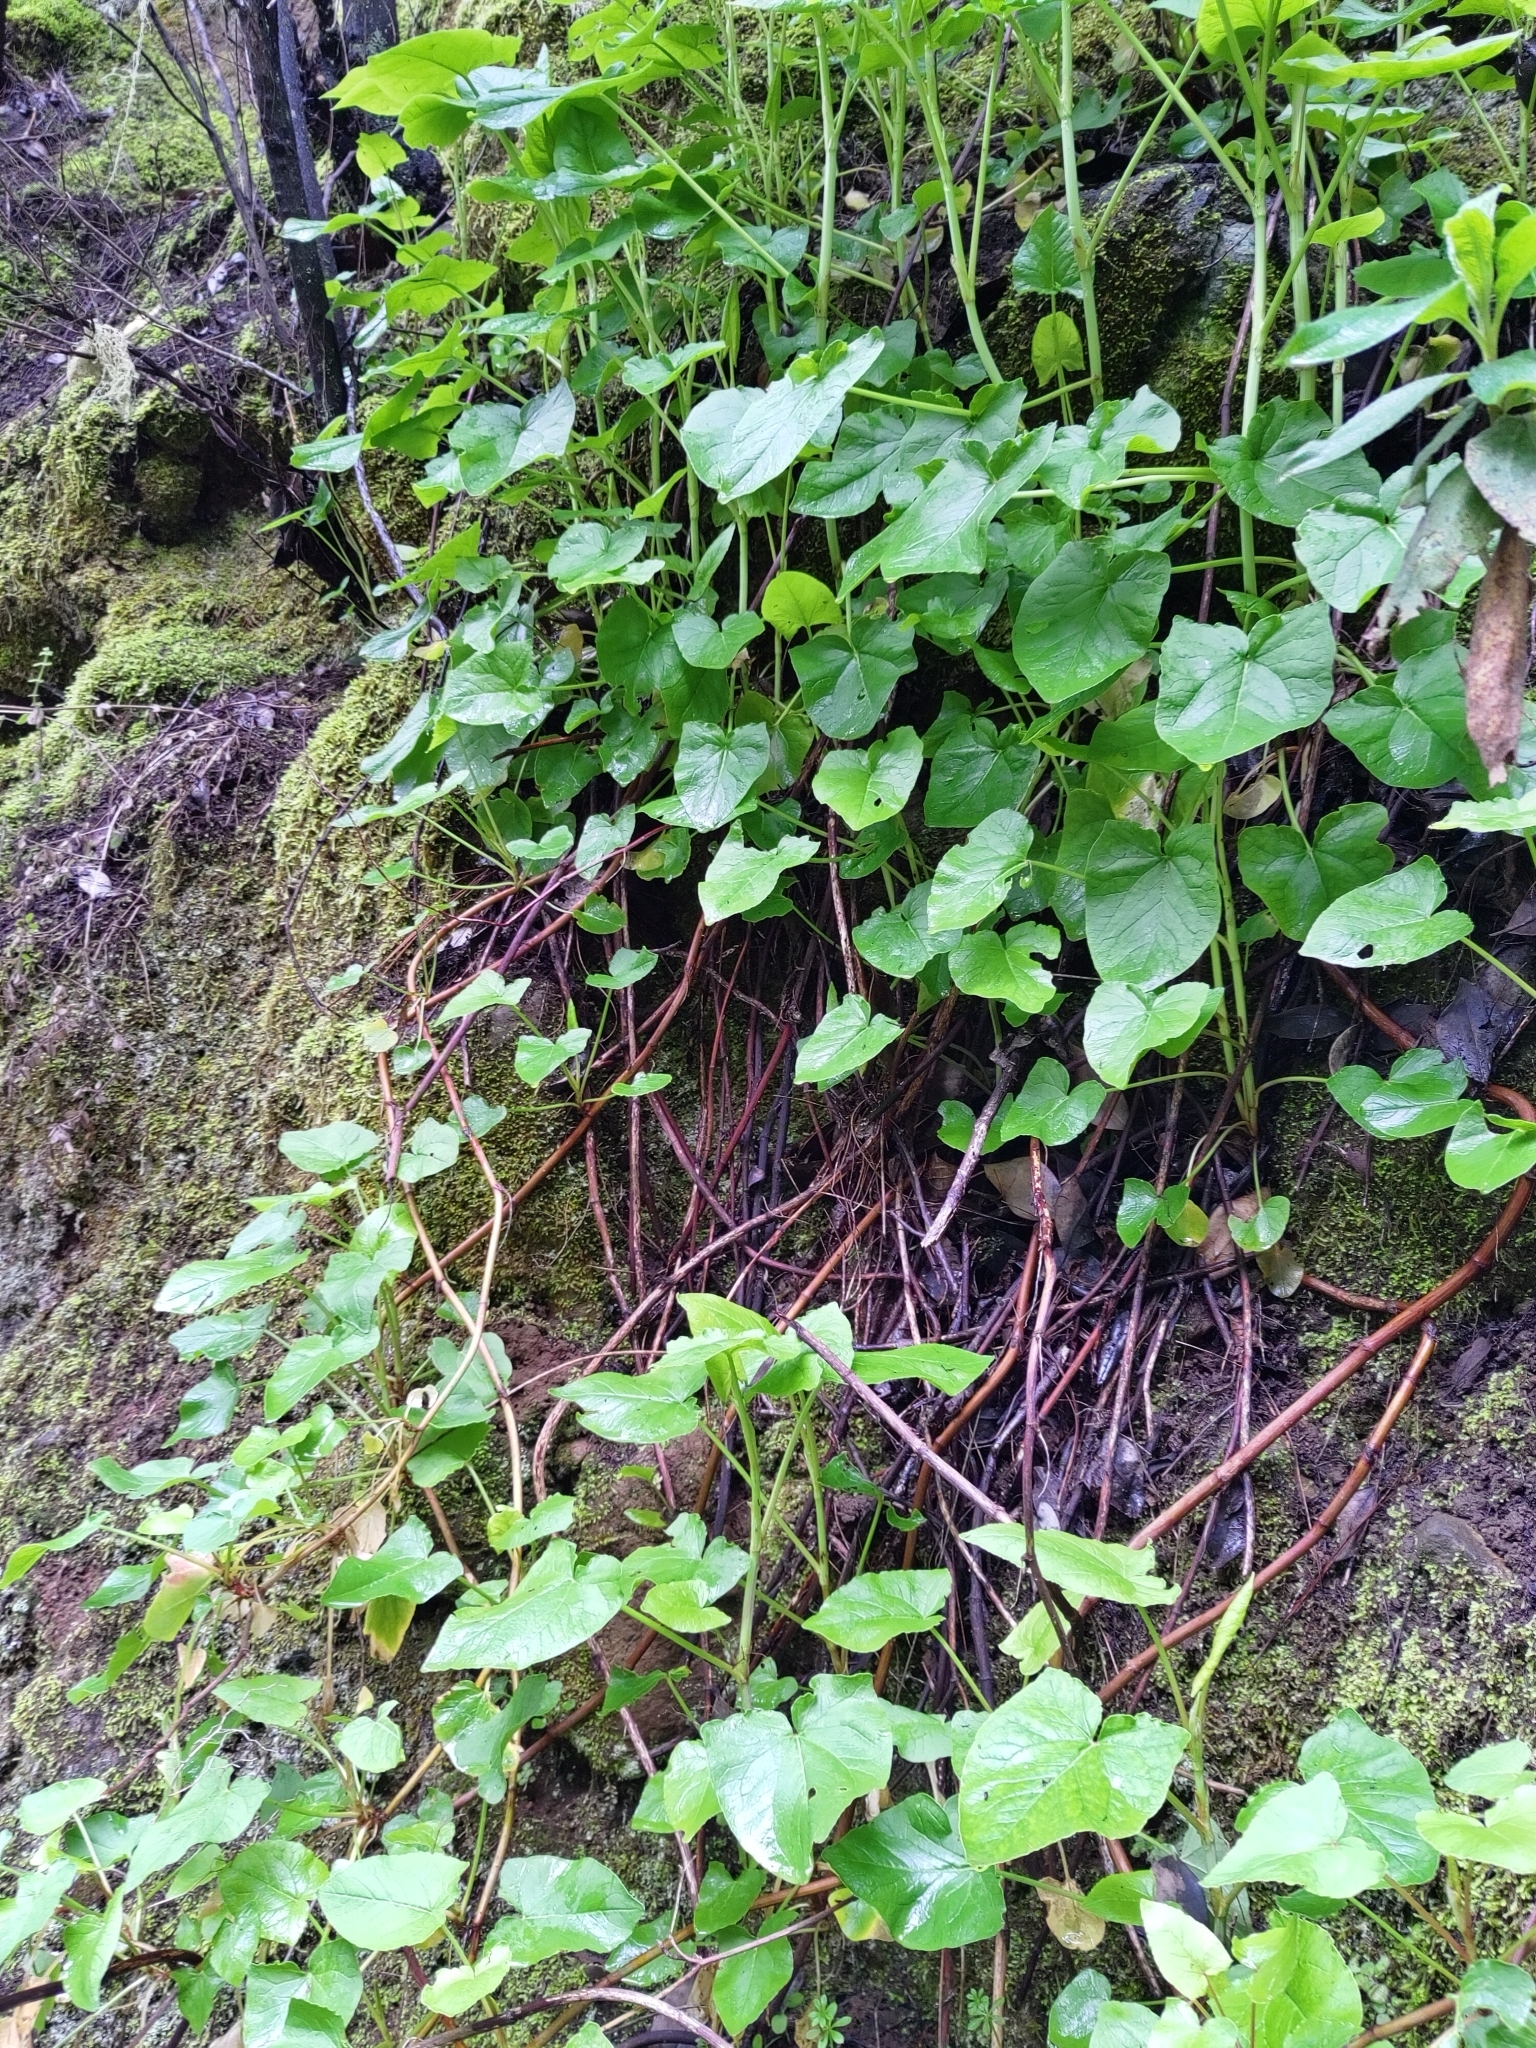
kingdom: Plantae
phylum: Tracheophyta
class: Magnoliopsida
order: Caryophyllales
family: Polygonaceae
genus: Rumex
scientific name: Rumex maderensis
